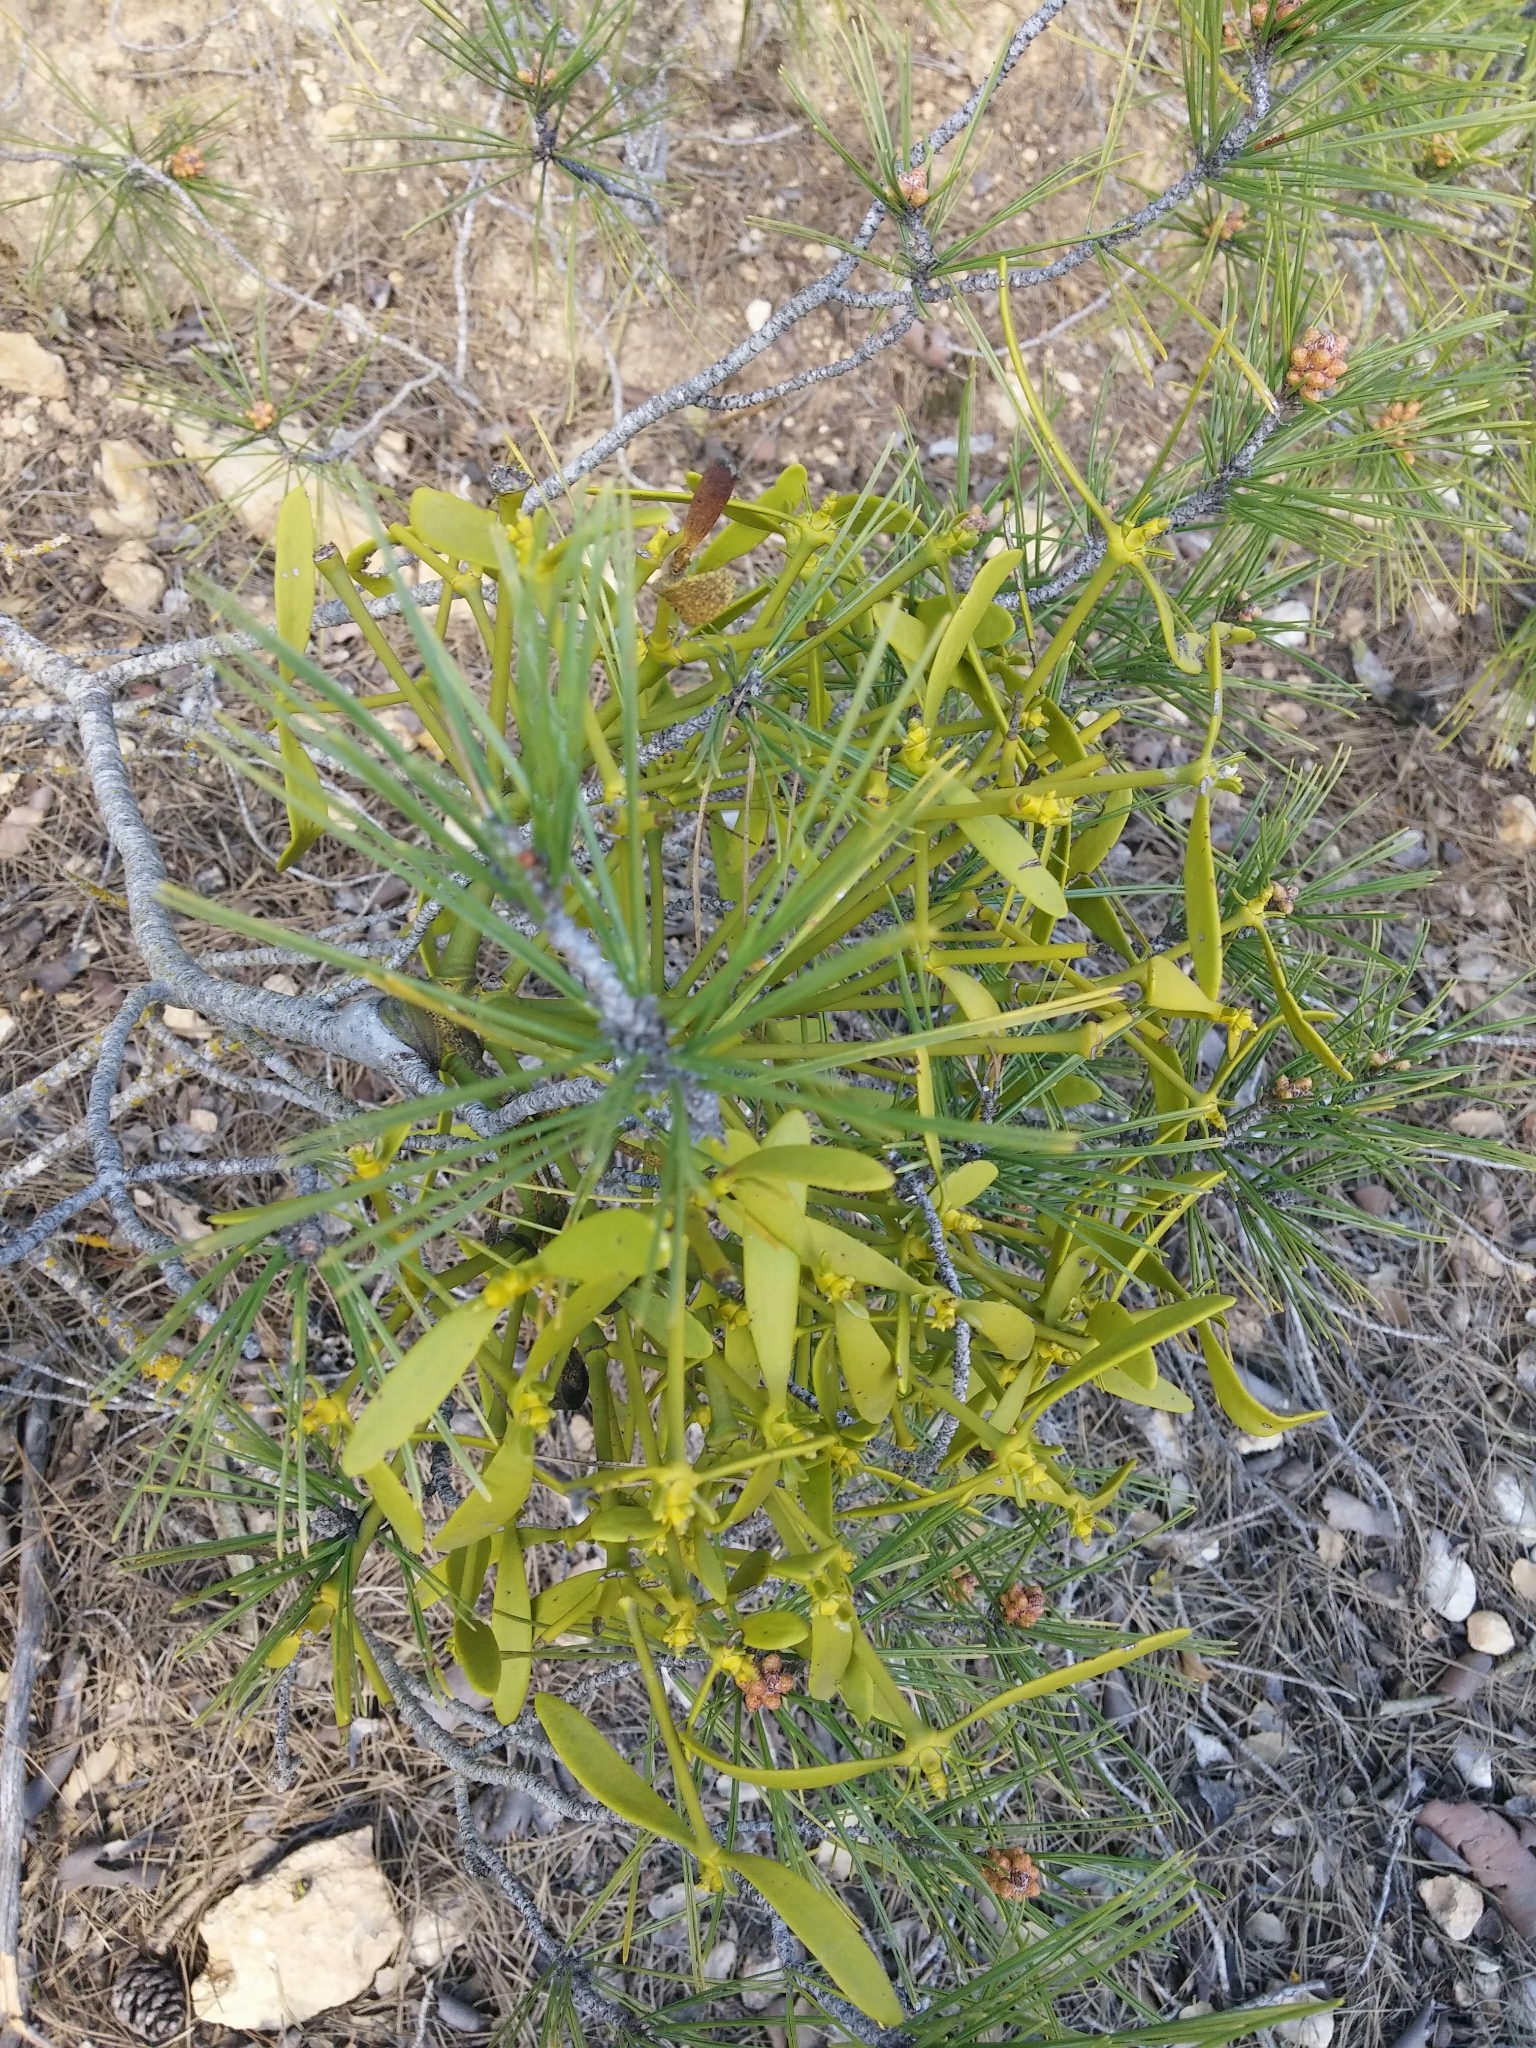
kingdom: Plantae
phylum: Tracheophyta
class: Magnoliopsida
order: Santalales
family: Viscaceae
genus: Viscum
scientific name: Viscum album
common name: Mistletoe
